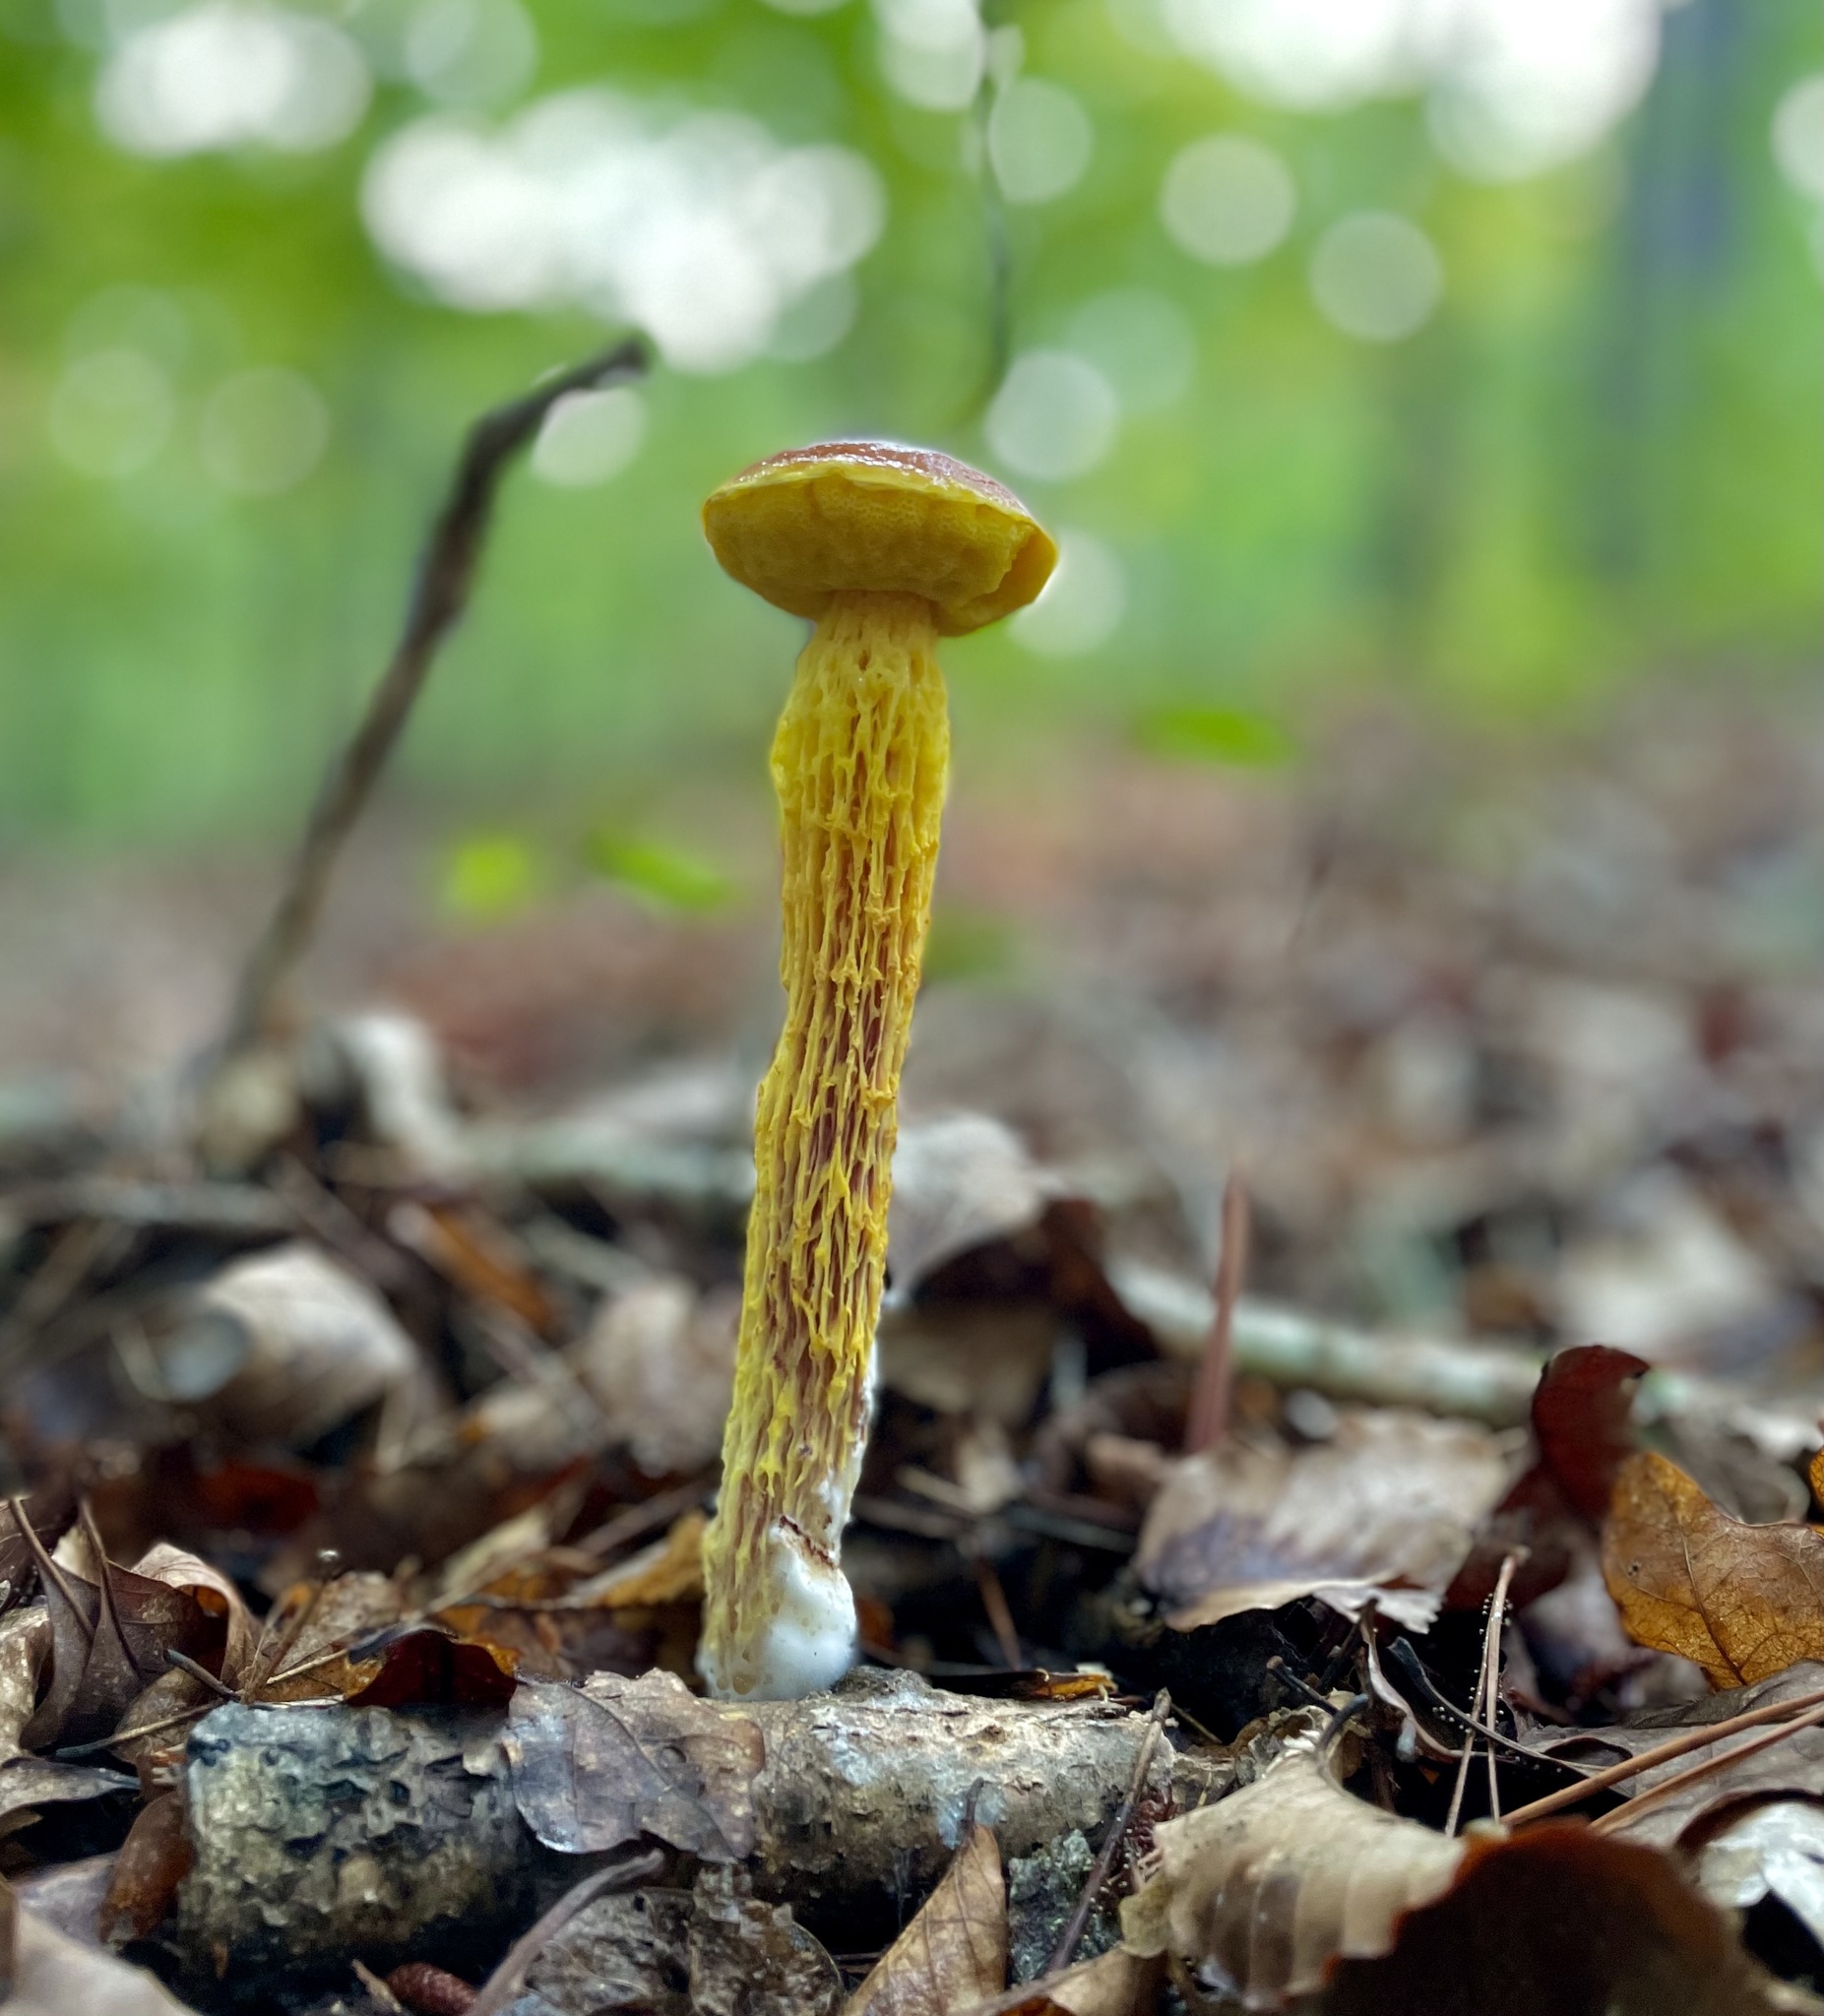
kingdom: Fungi
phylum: Basidiomycota
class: Agaricomycetes
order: Boletales
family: Boletaceae
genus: Aureoboletus
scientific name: Aureoboletus betula
